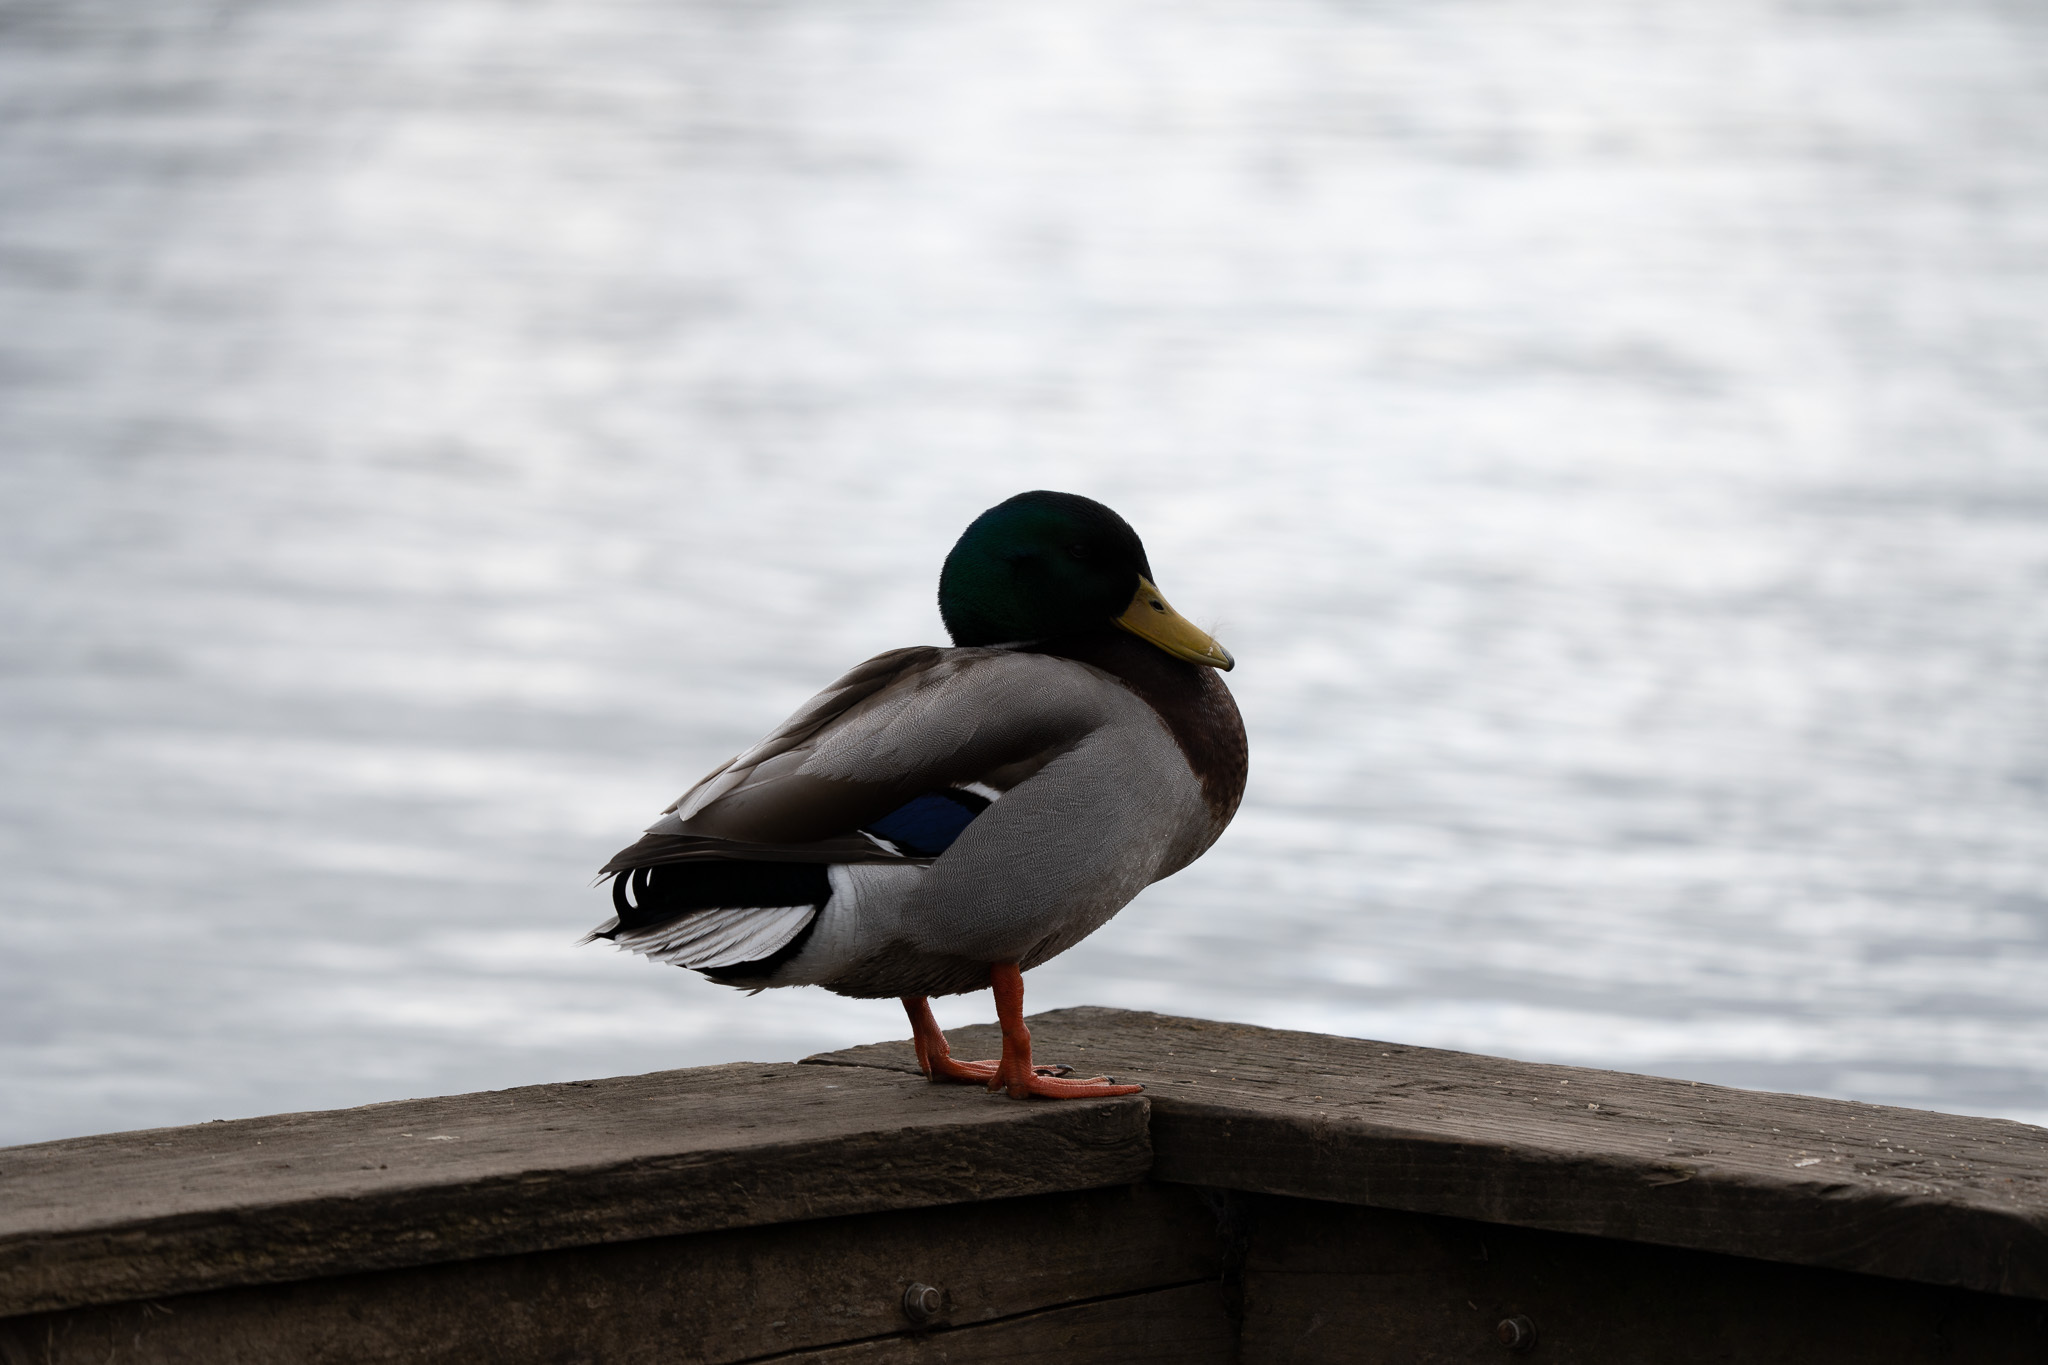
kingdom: Animalia
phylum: Chordata
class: Aves
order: Anseriformes
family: Anatidae
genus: Anas
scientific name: Anas platyrhynchos
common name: Mallard
